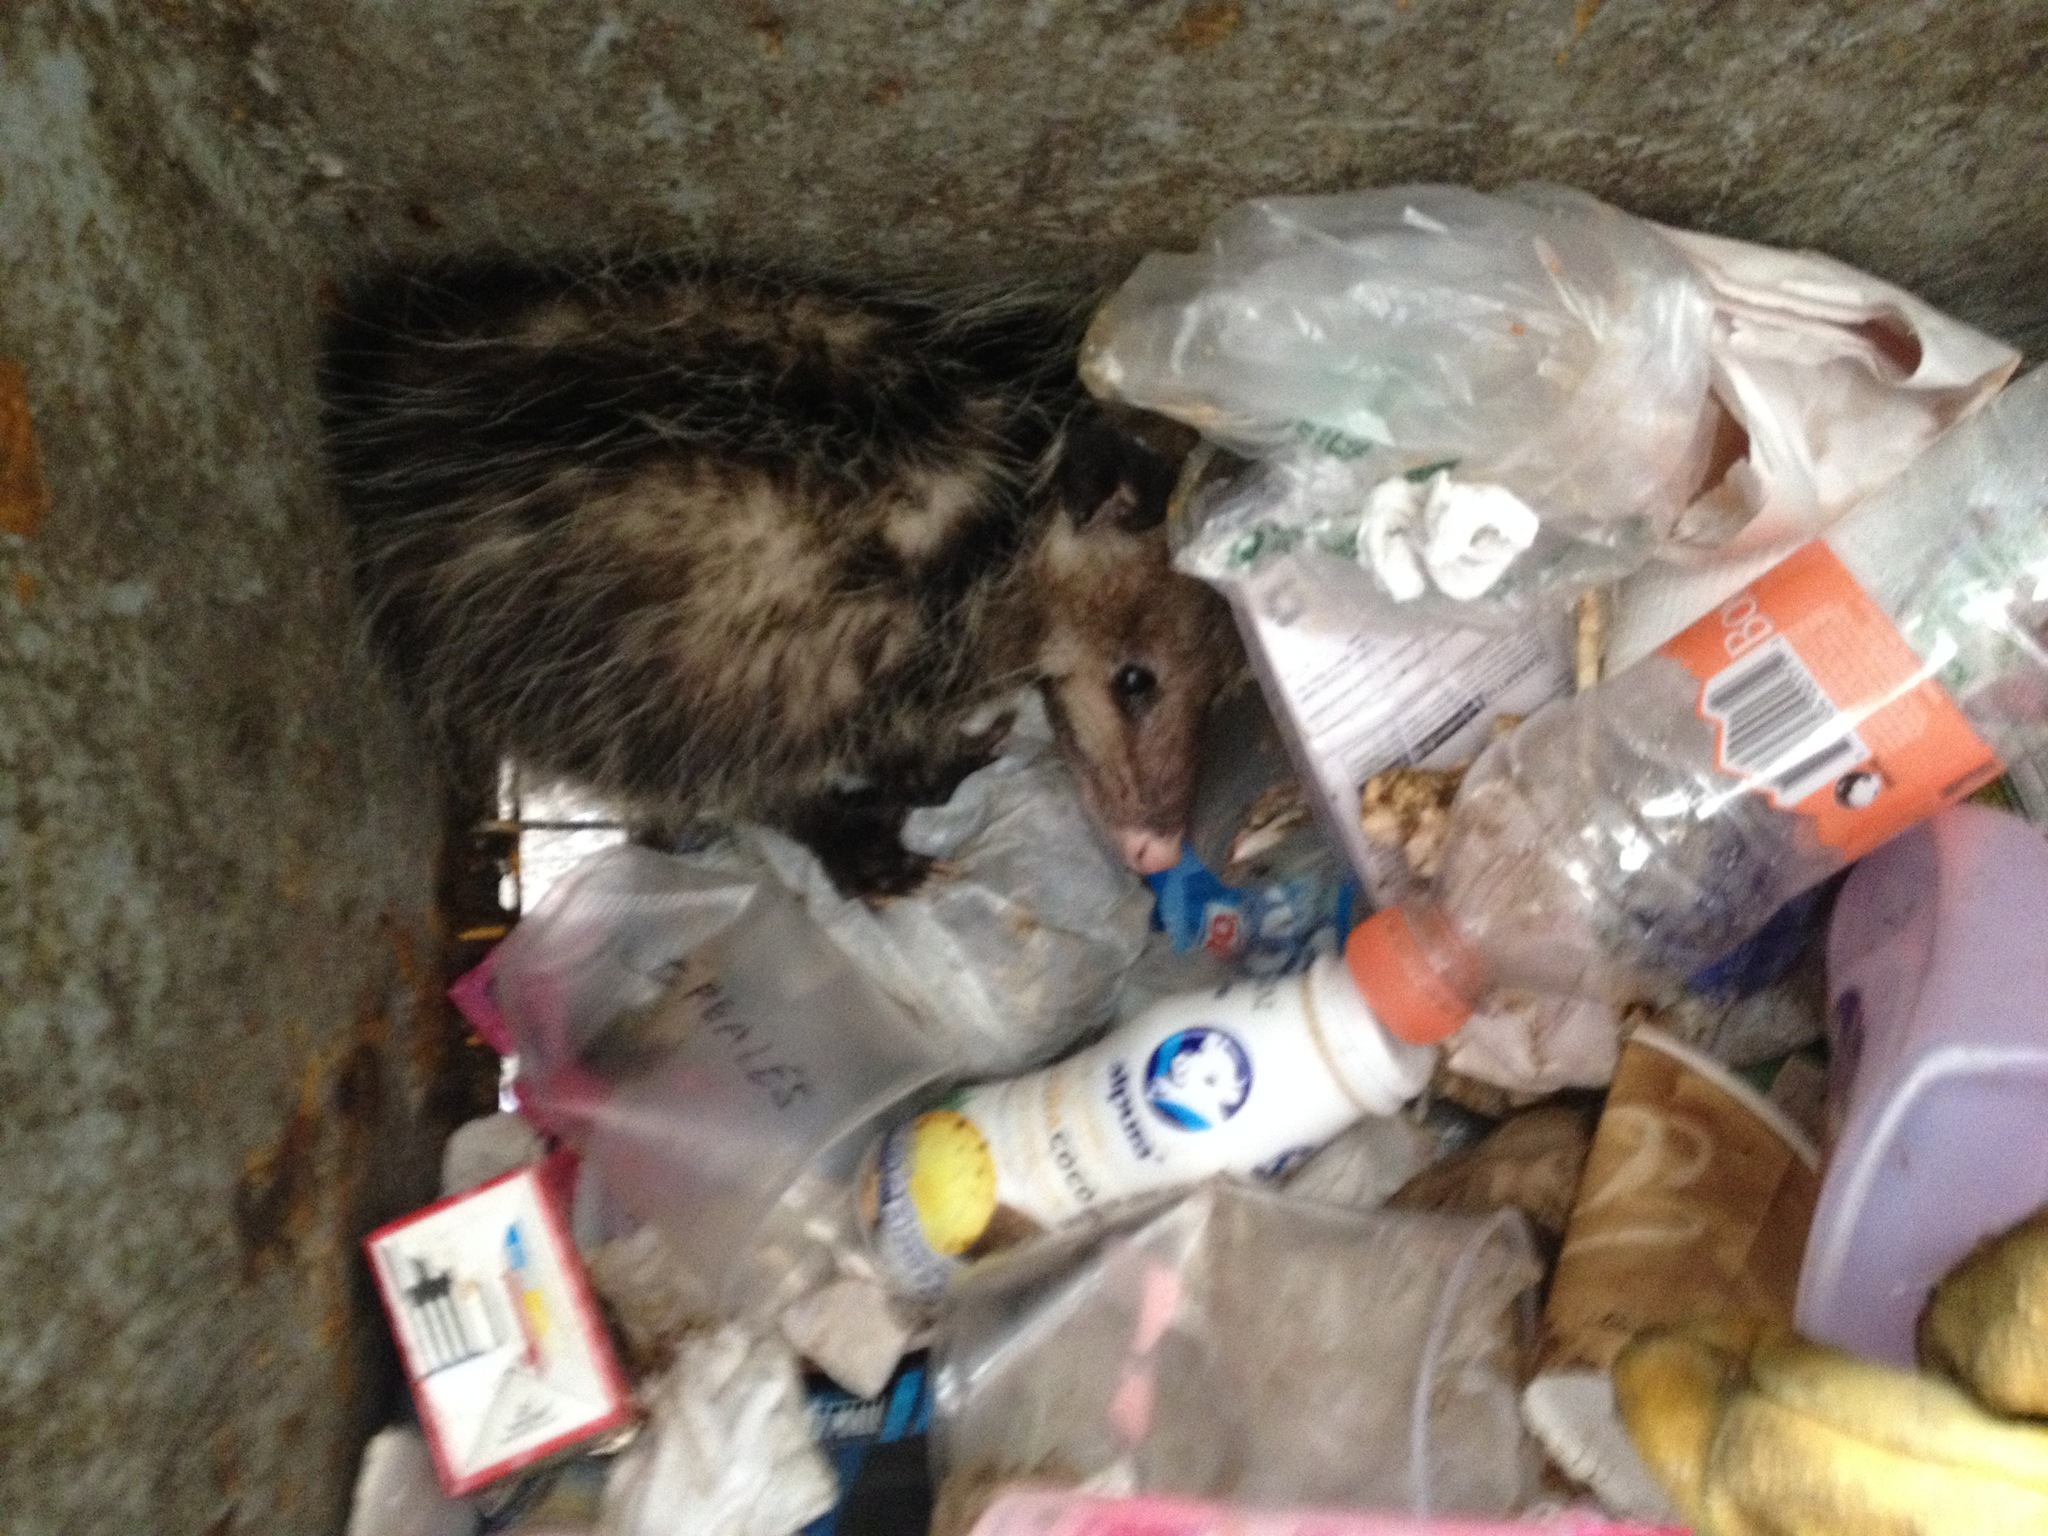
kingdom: Animalia
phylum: Chordata
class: Mammalia
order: Didelphimorphia
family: Didelphidae
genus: Didelphis
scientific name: Didelphis virginiana
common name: Virginia opossum
